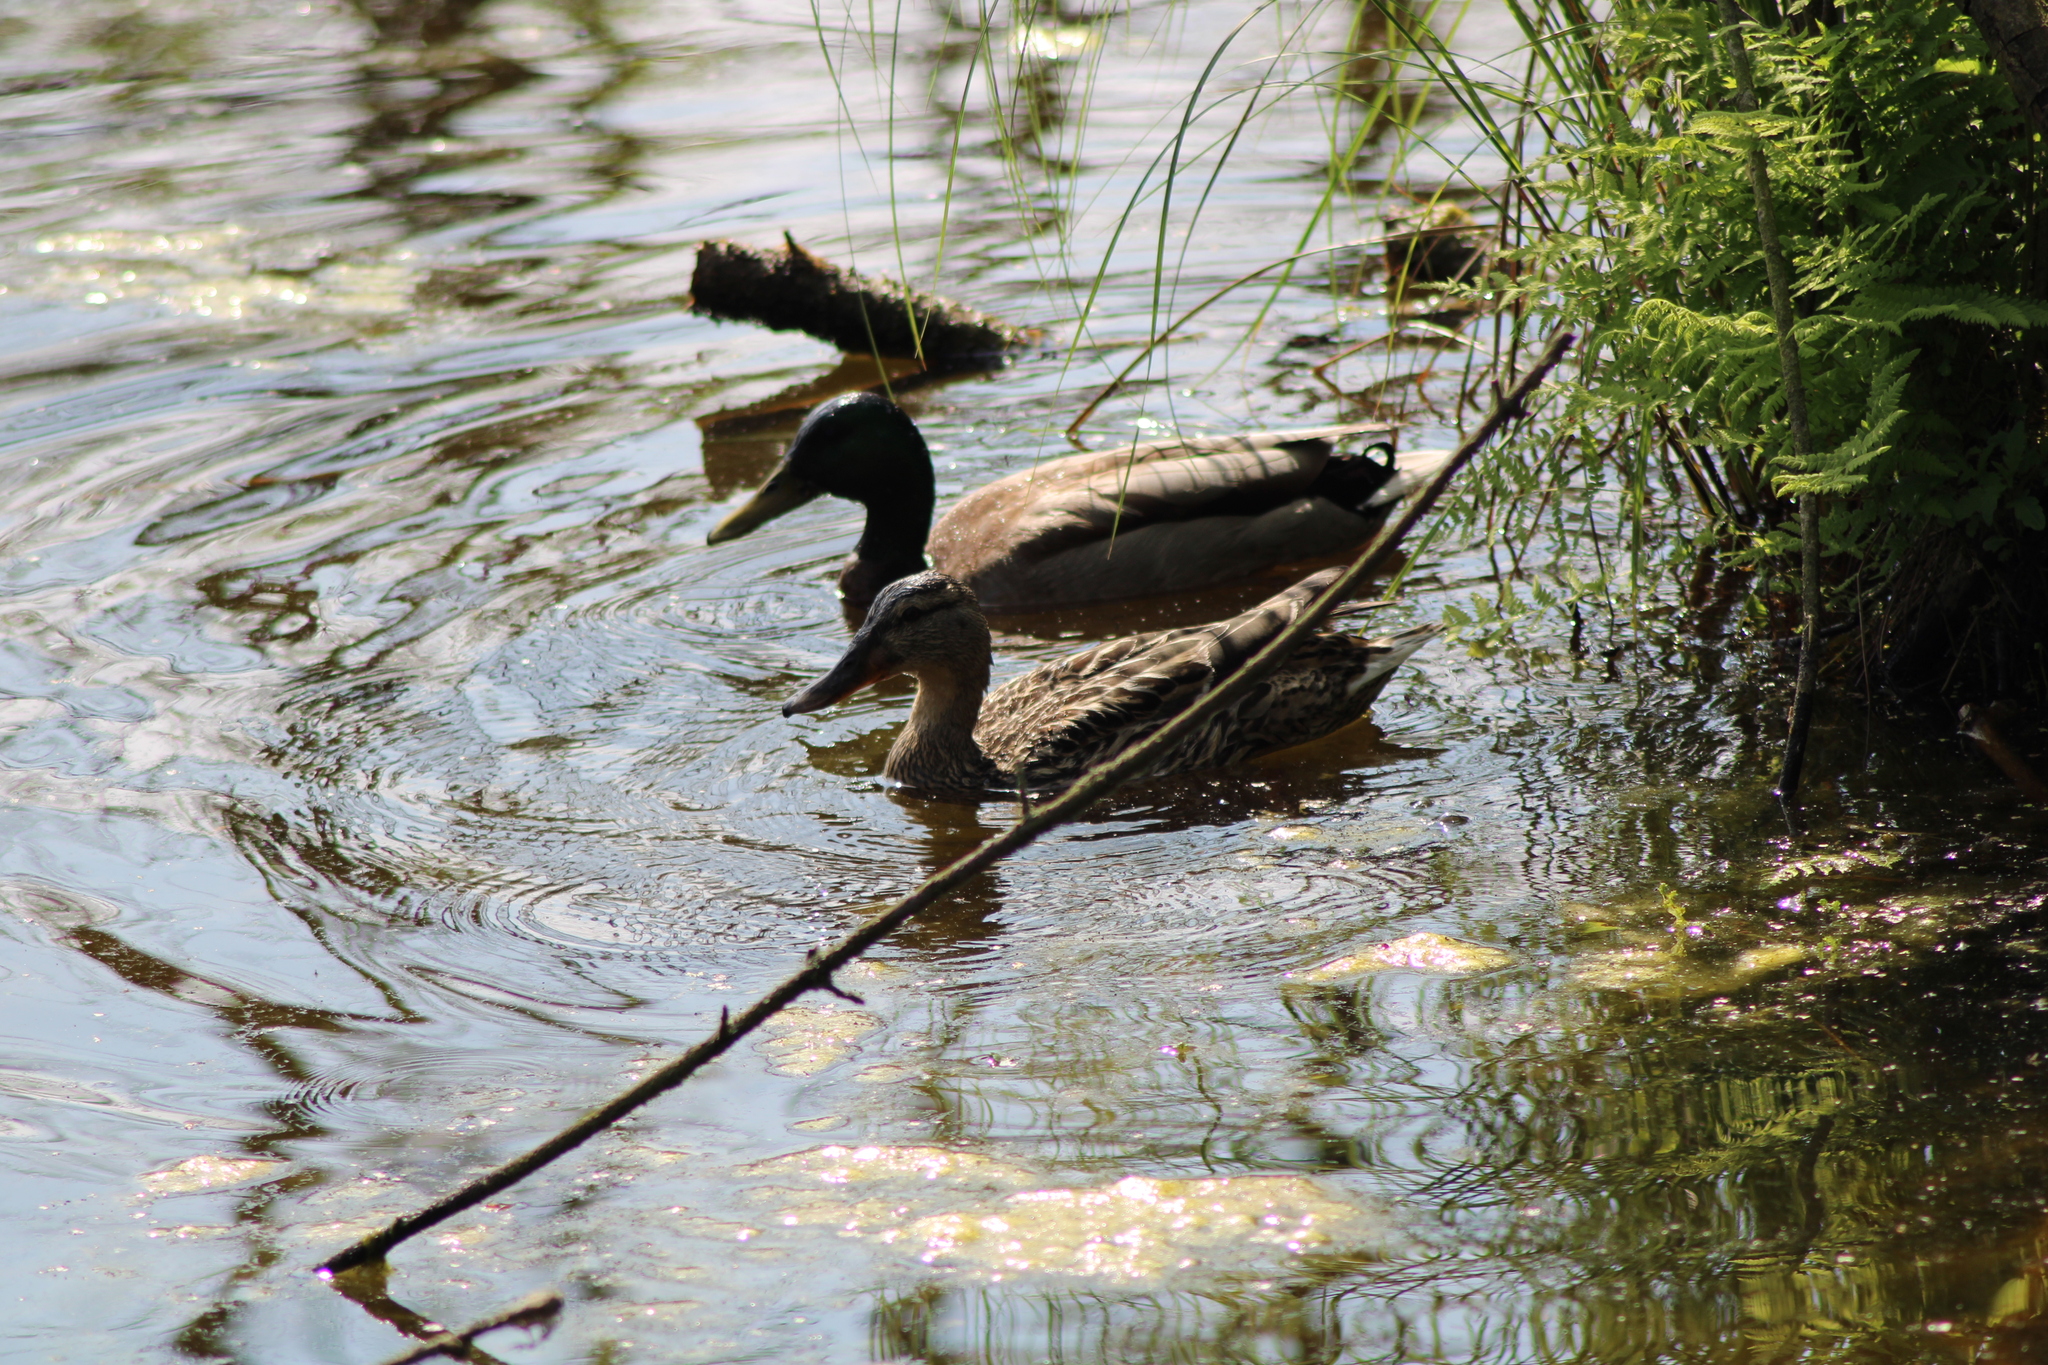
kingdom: Animalia
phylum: Chordata
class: Aves
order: Anseriformes
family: Anatidae
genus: Anas
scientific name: Anas platyrhynchos
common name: Mallard
